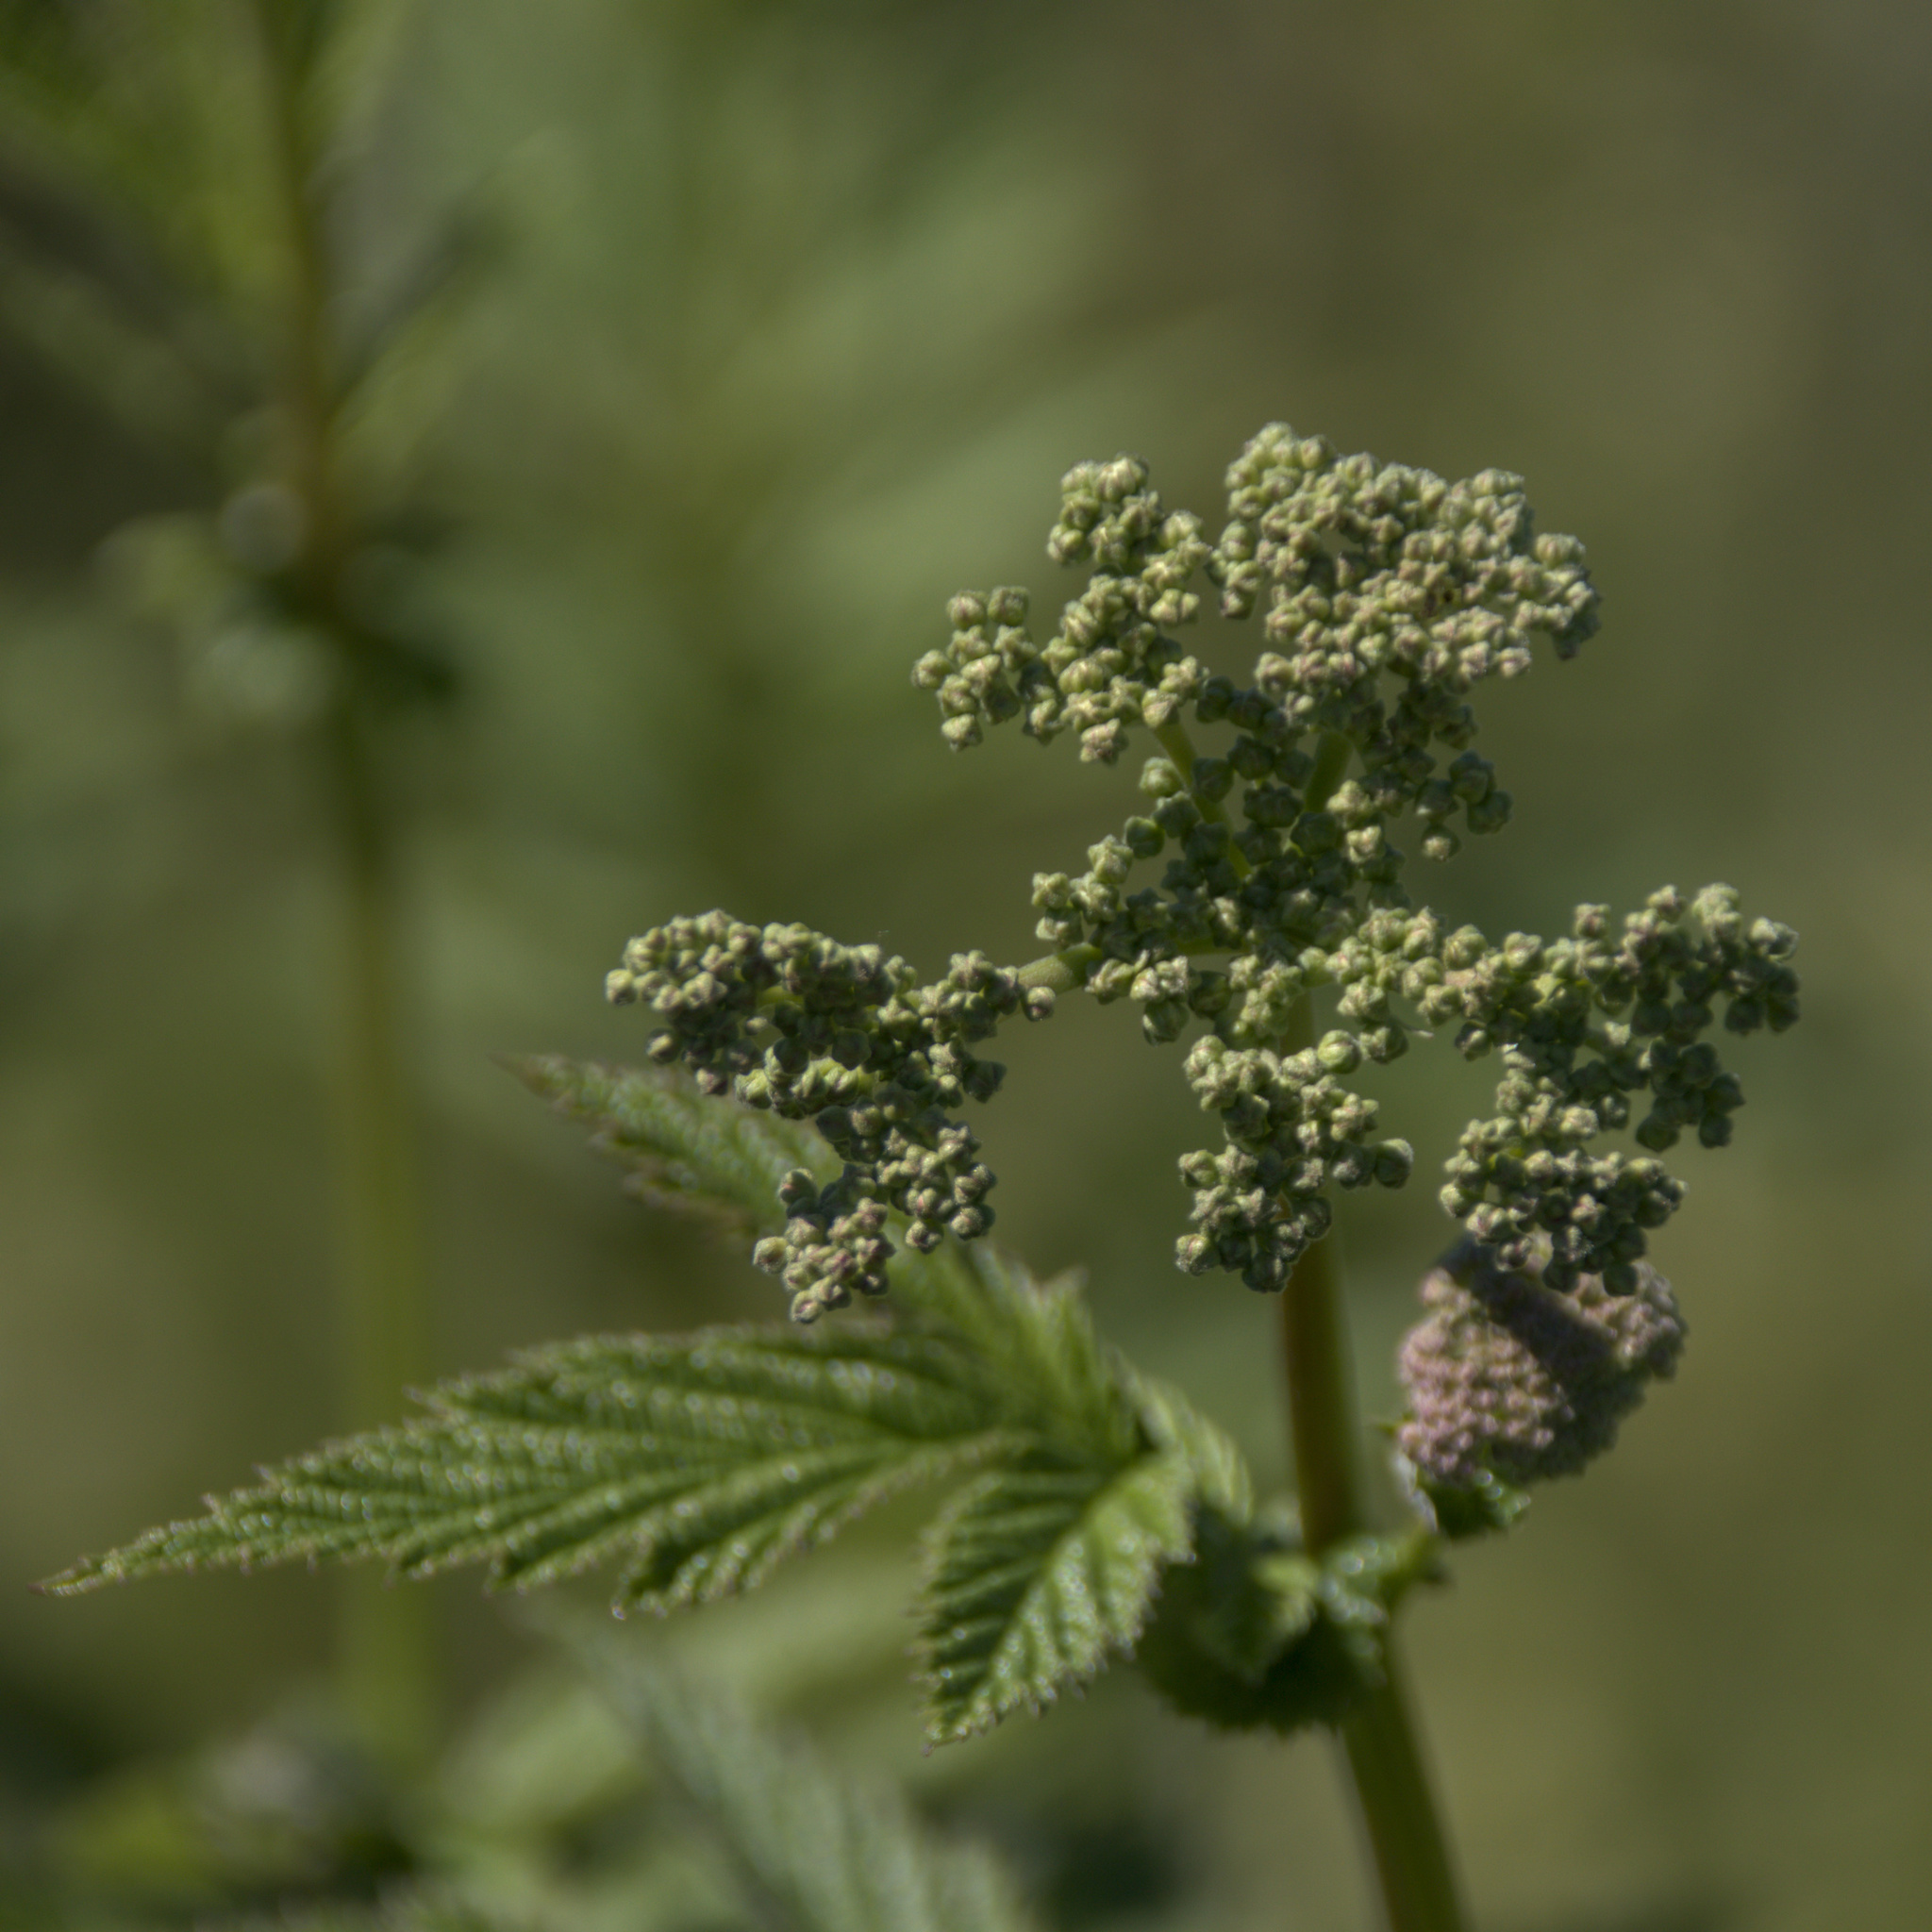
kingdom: Plantae
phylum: Tracheophyta
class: Magnoliopsida
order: Rosales
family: Rosaceae
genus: Filipendula
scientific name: Filipendula ulmaria
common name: Meadowsweet
